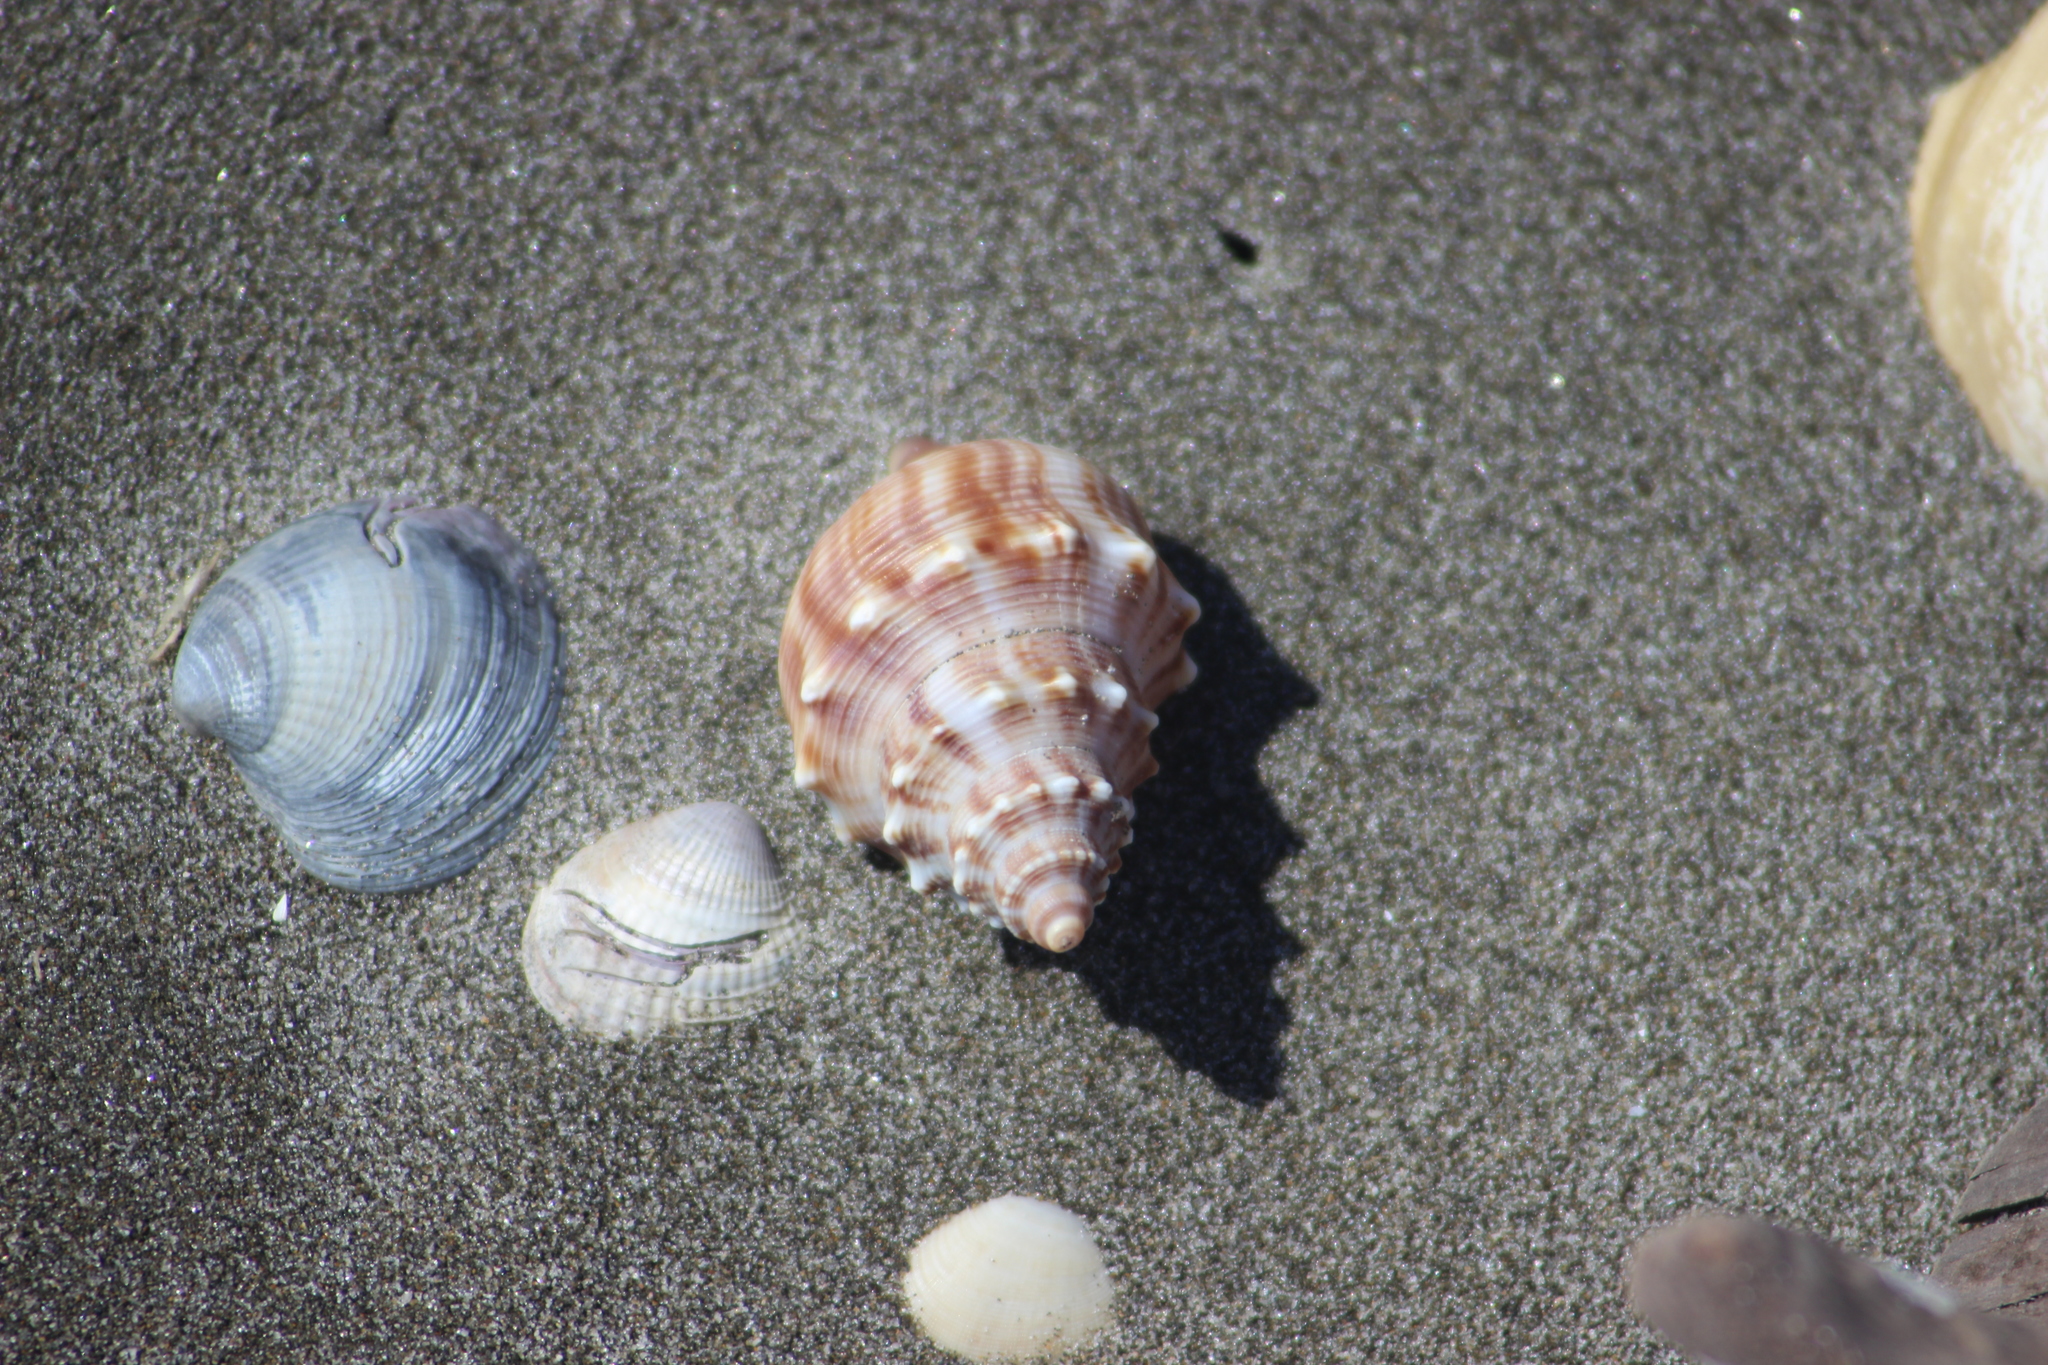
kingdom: Animalia
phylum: Mollusca
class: Gastropoda
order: Littorinimorpha
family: Struthiolariidae
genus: Struthiolaria
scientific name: Struthiolaria papulosa
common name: Large ostrich foot
